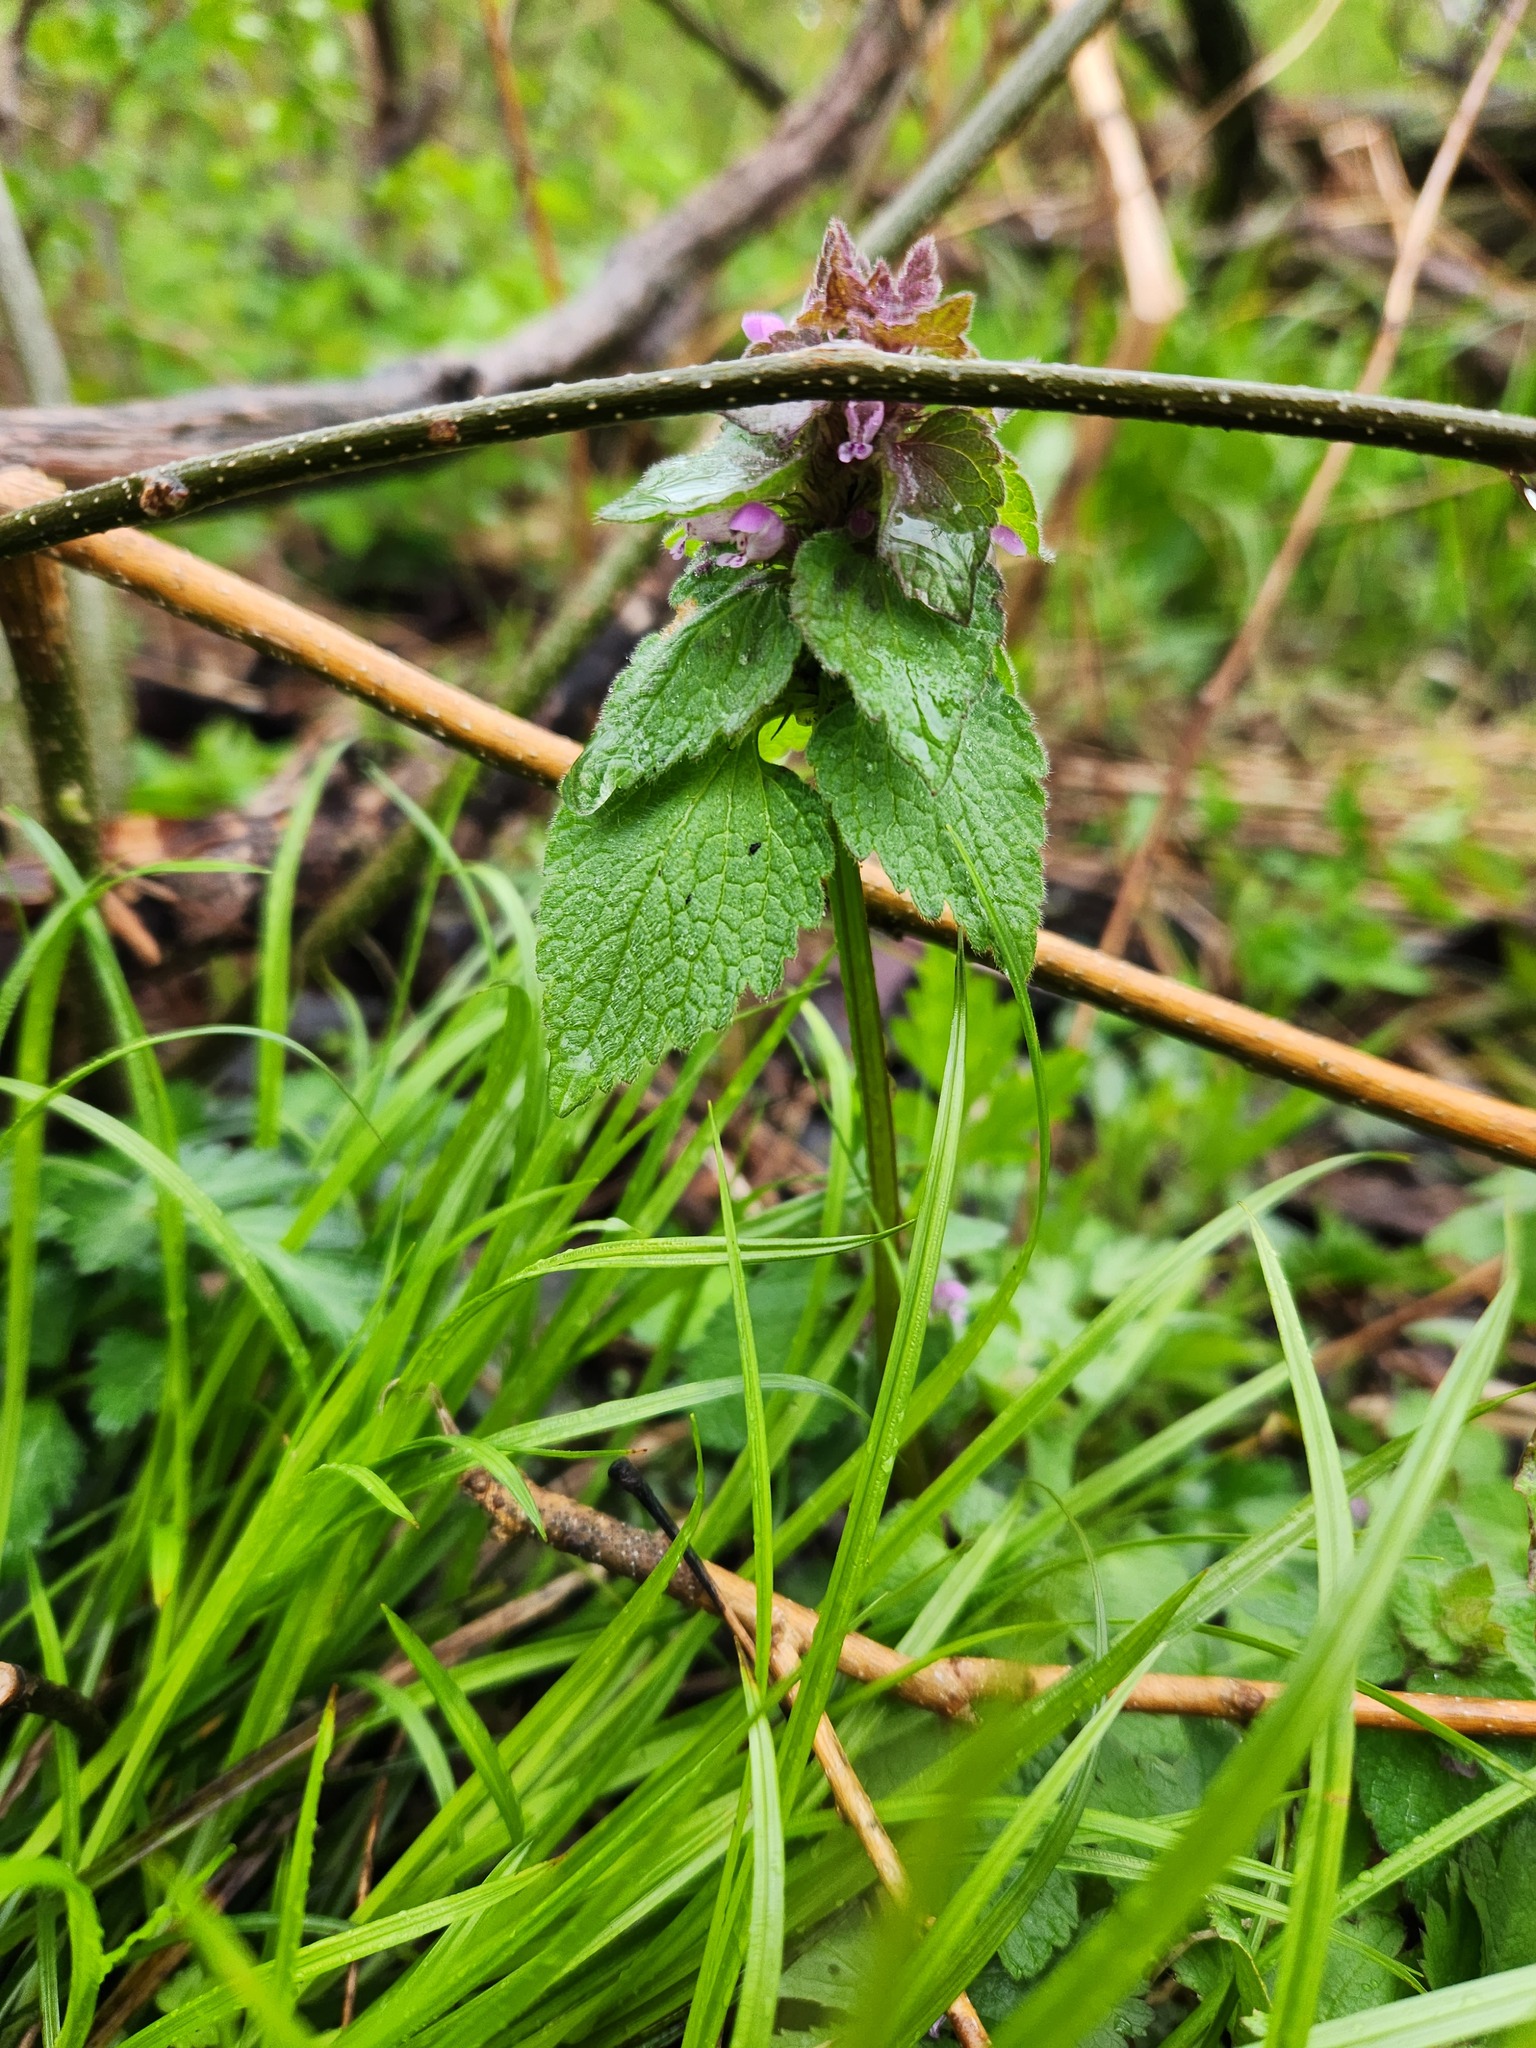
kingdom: Plantae
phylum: Tracheophyta
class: Magnoliopsida
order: Lamiales
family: Lamiaceae
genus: Lamium
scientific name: Lamium purpureum
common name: Red dead-nettle
